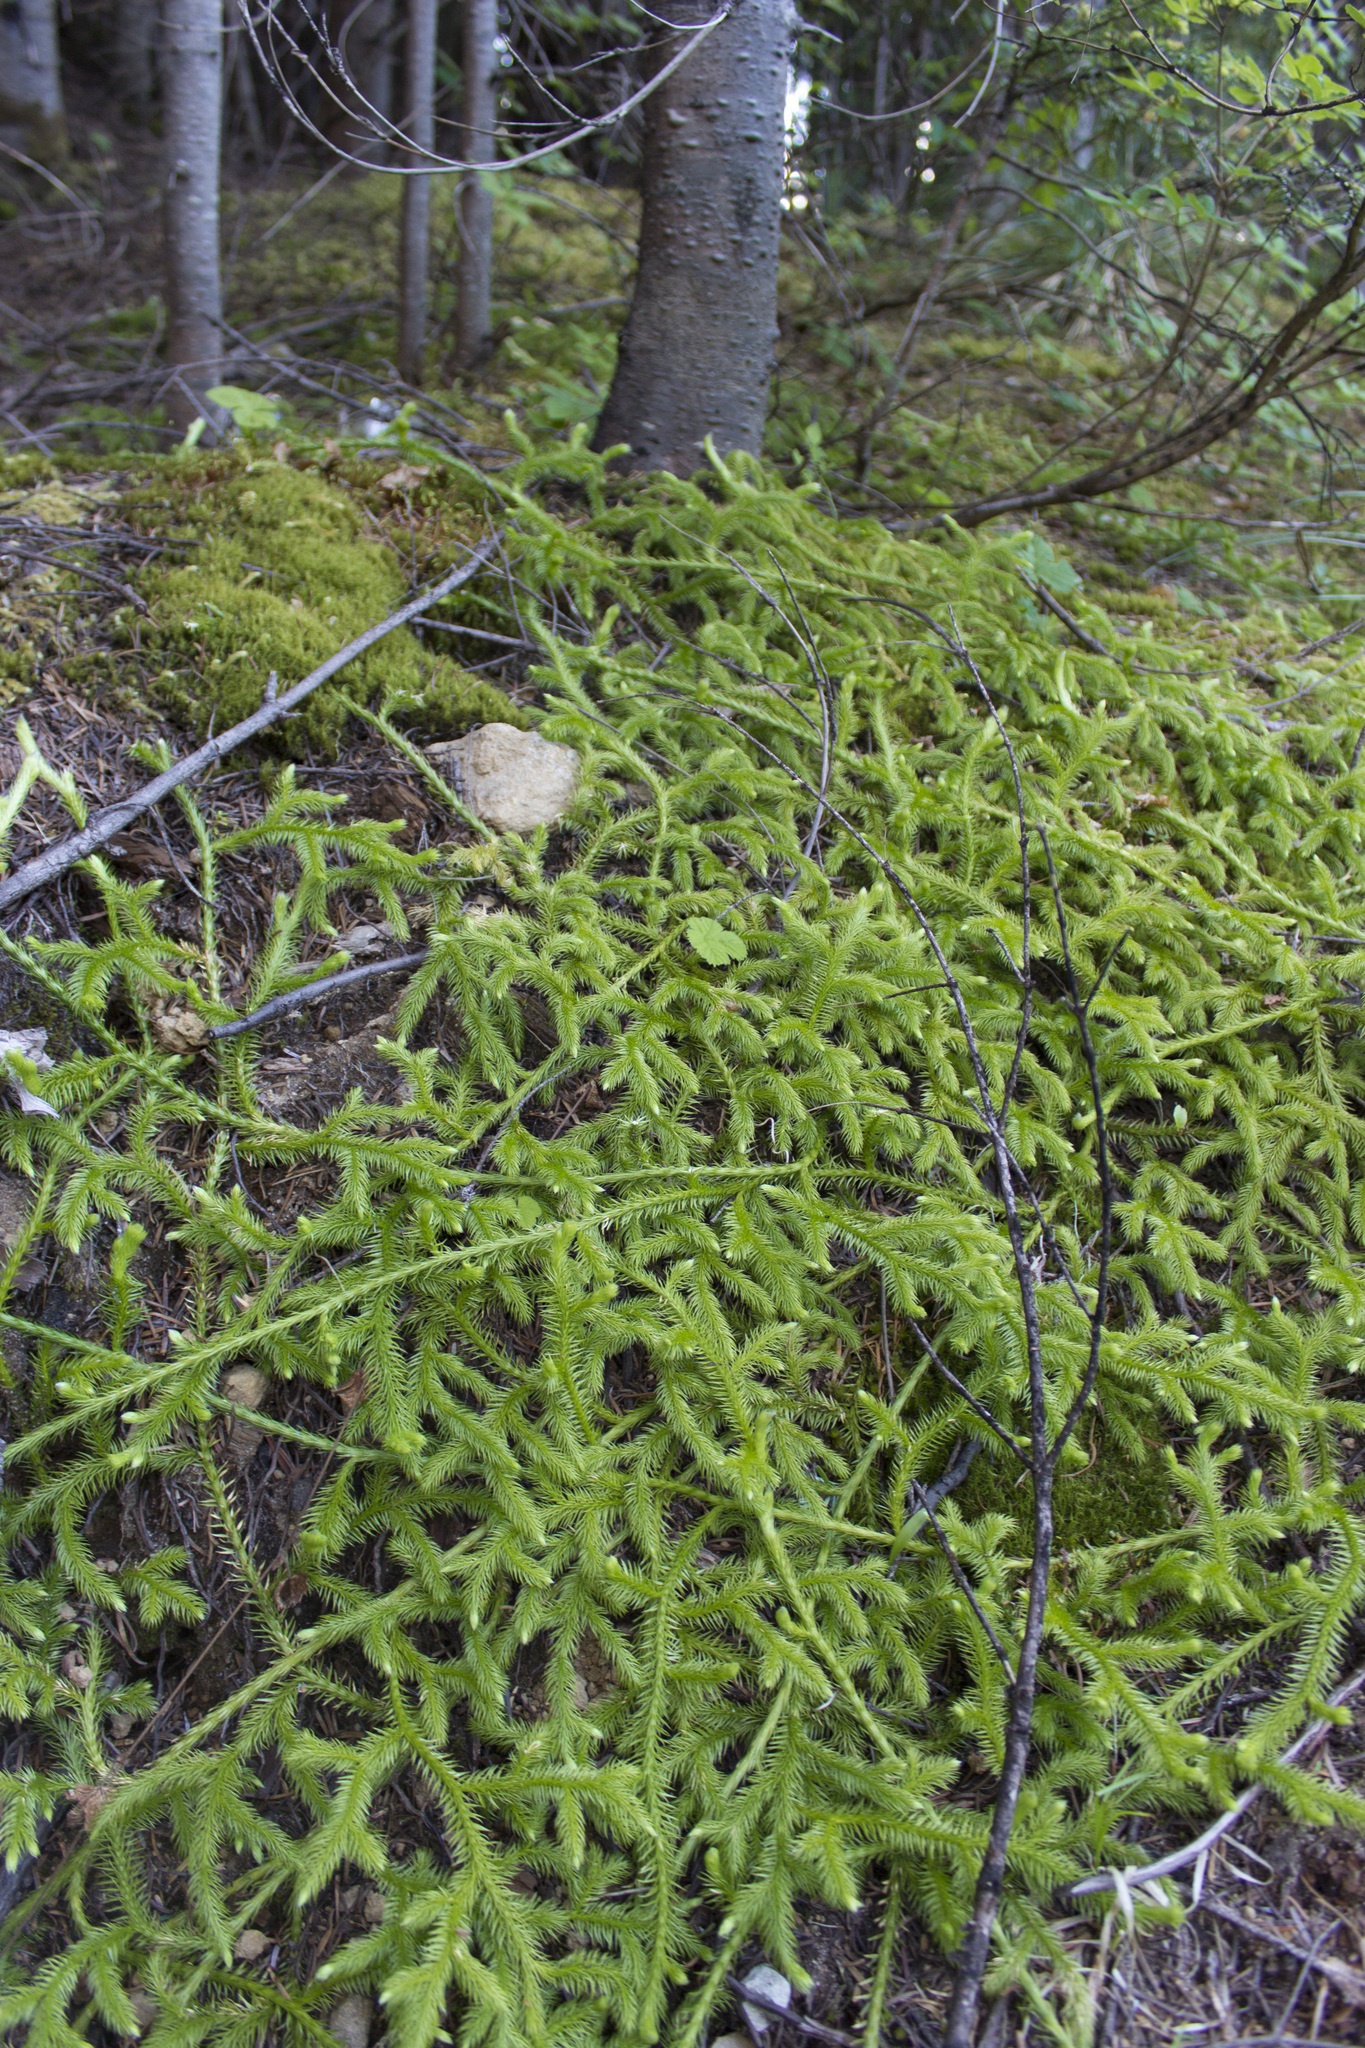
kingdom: Plantae
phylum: Tracheophyta
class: Lycopodiopsida
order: Lycopodiales
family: Lycopodiaceae
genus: Lycopodium
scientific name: Lycopodium clavatum
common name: Stag's-horn clubmoss
